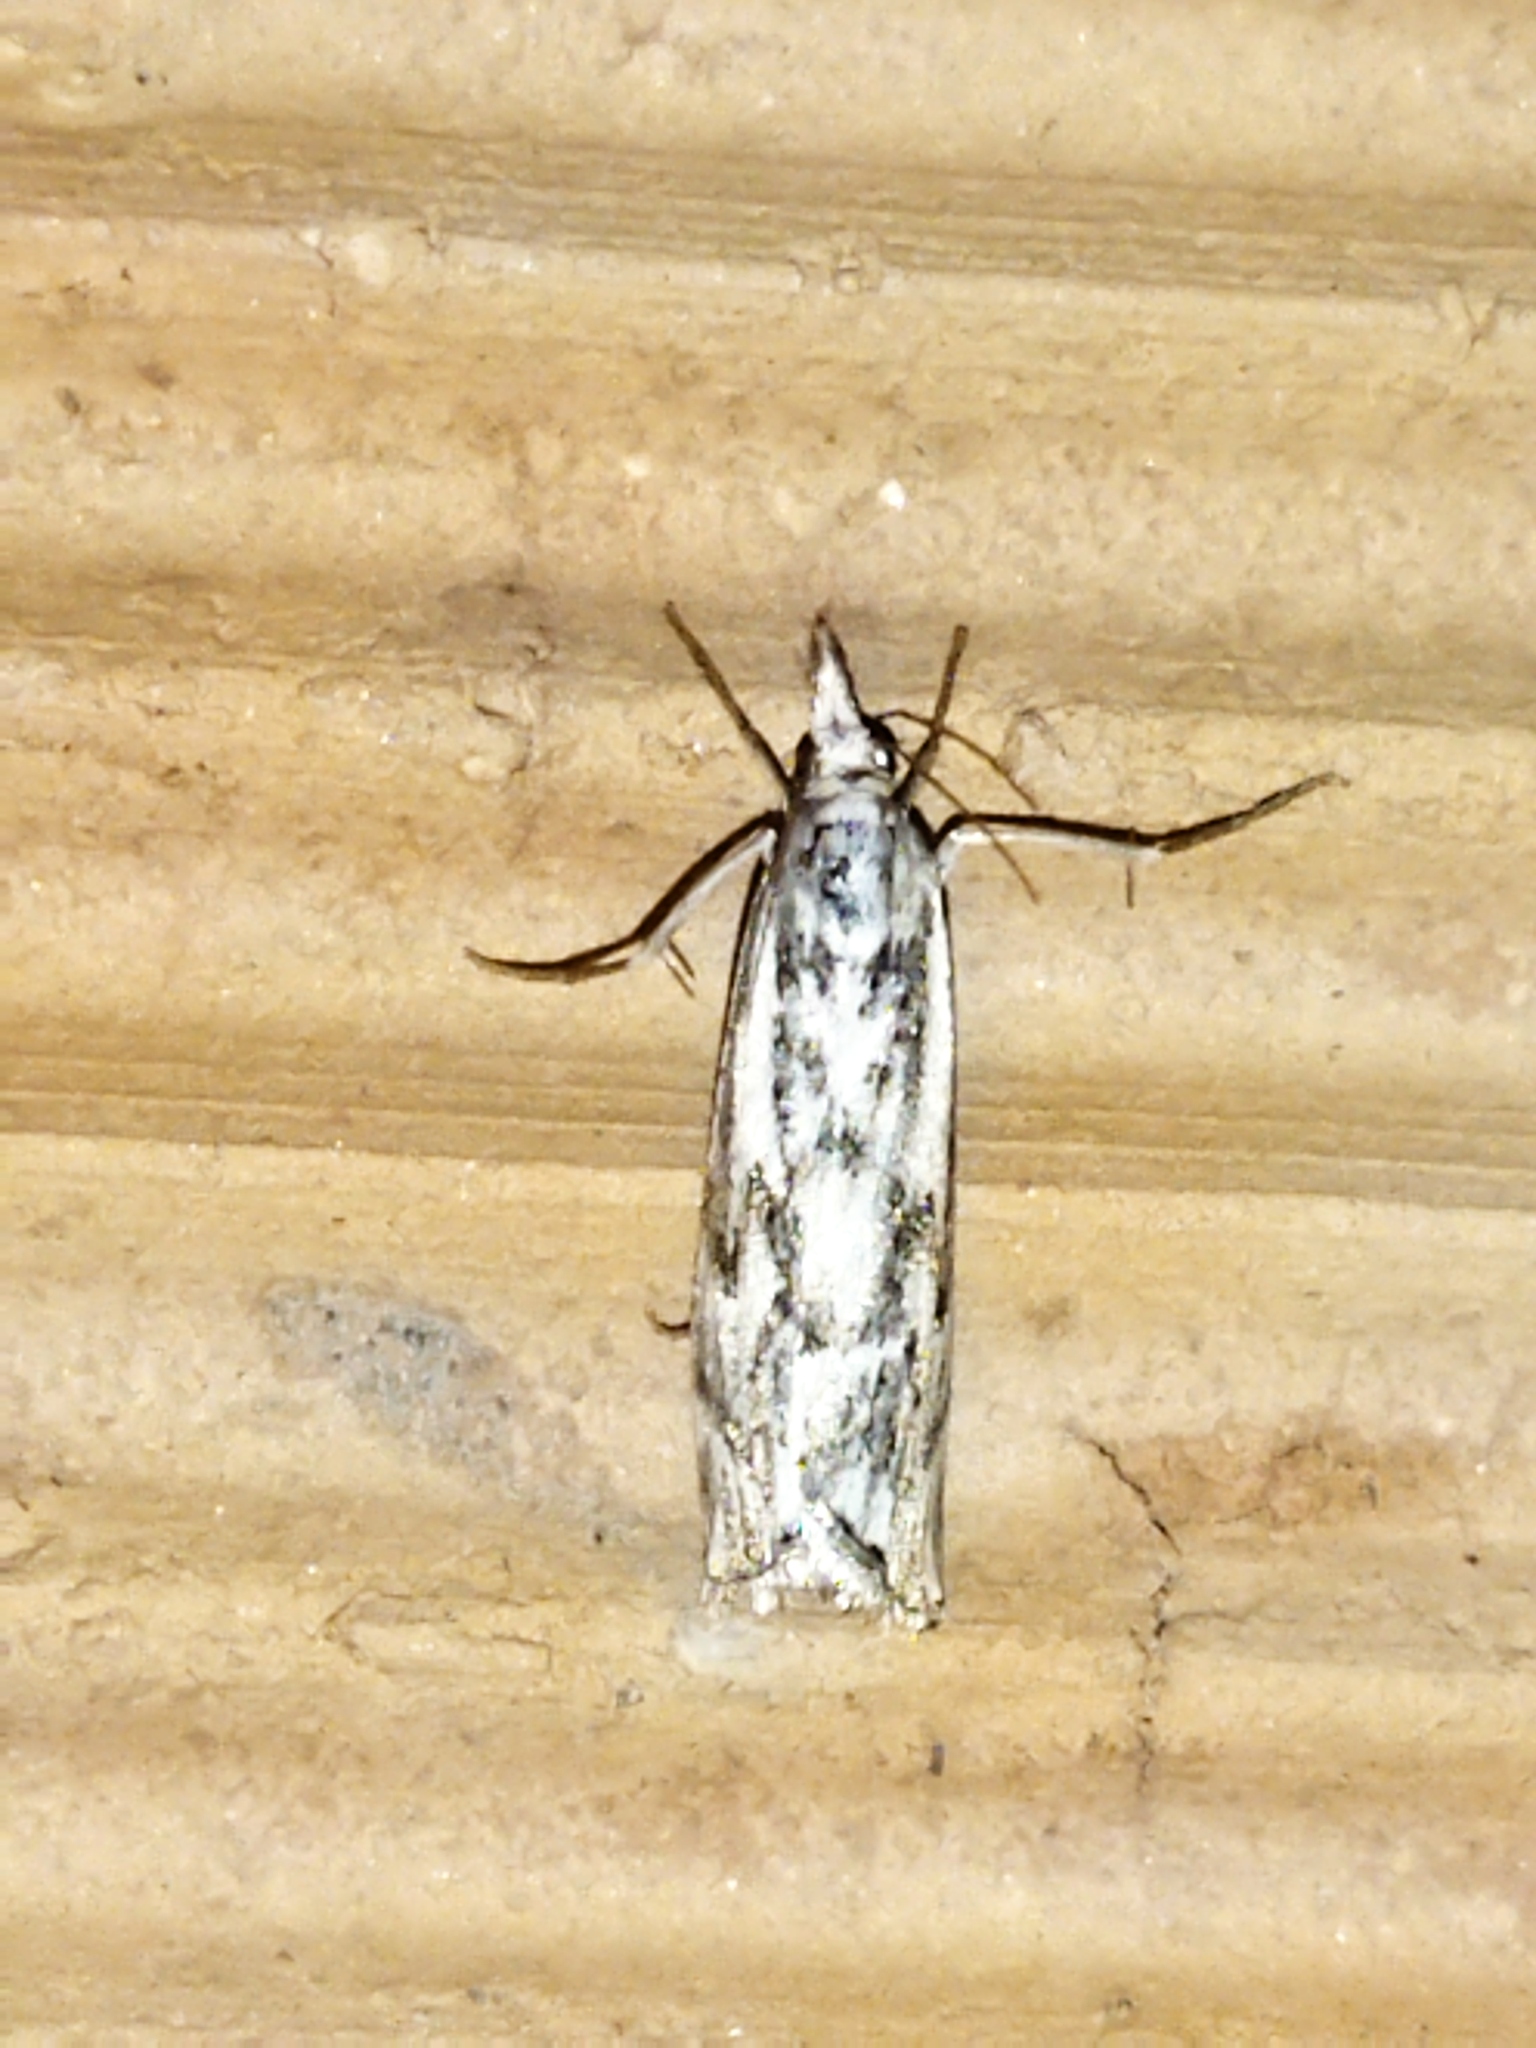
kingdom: Animalia
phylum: Arthropoda
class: Insecta
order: Lepidoptera
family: Crambidae
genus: Catoptria
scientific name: Catoptria confusellus
